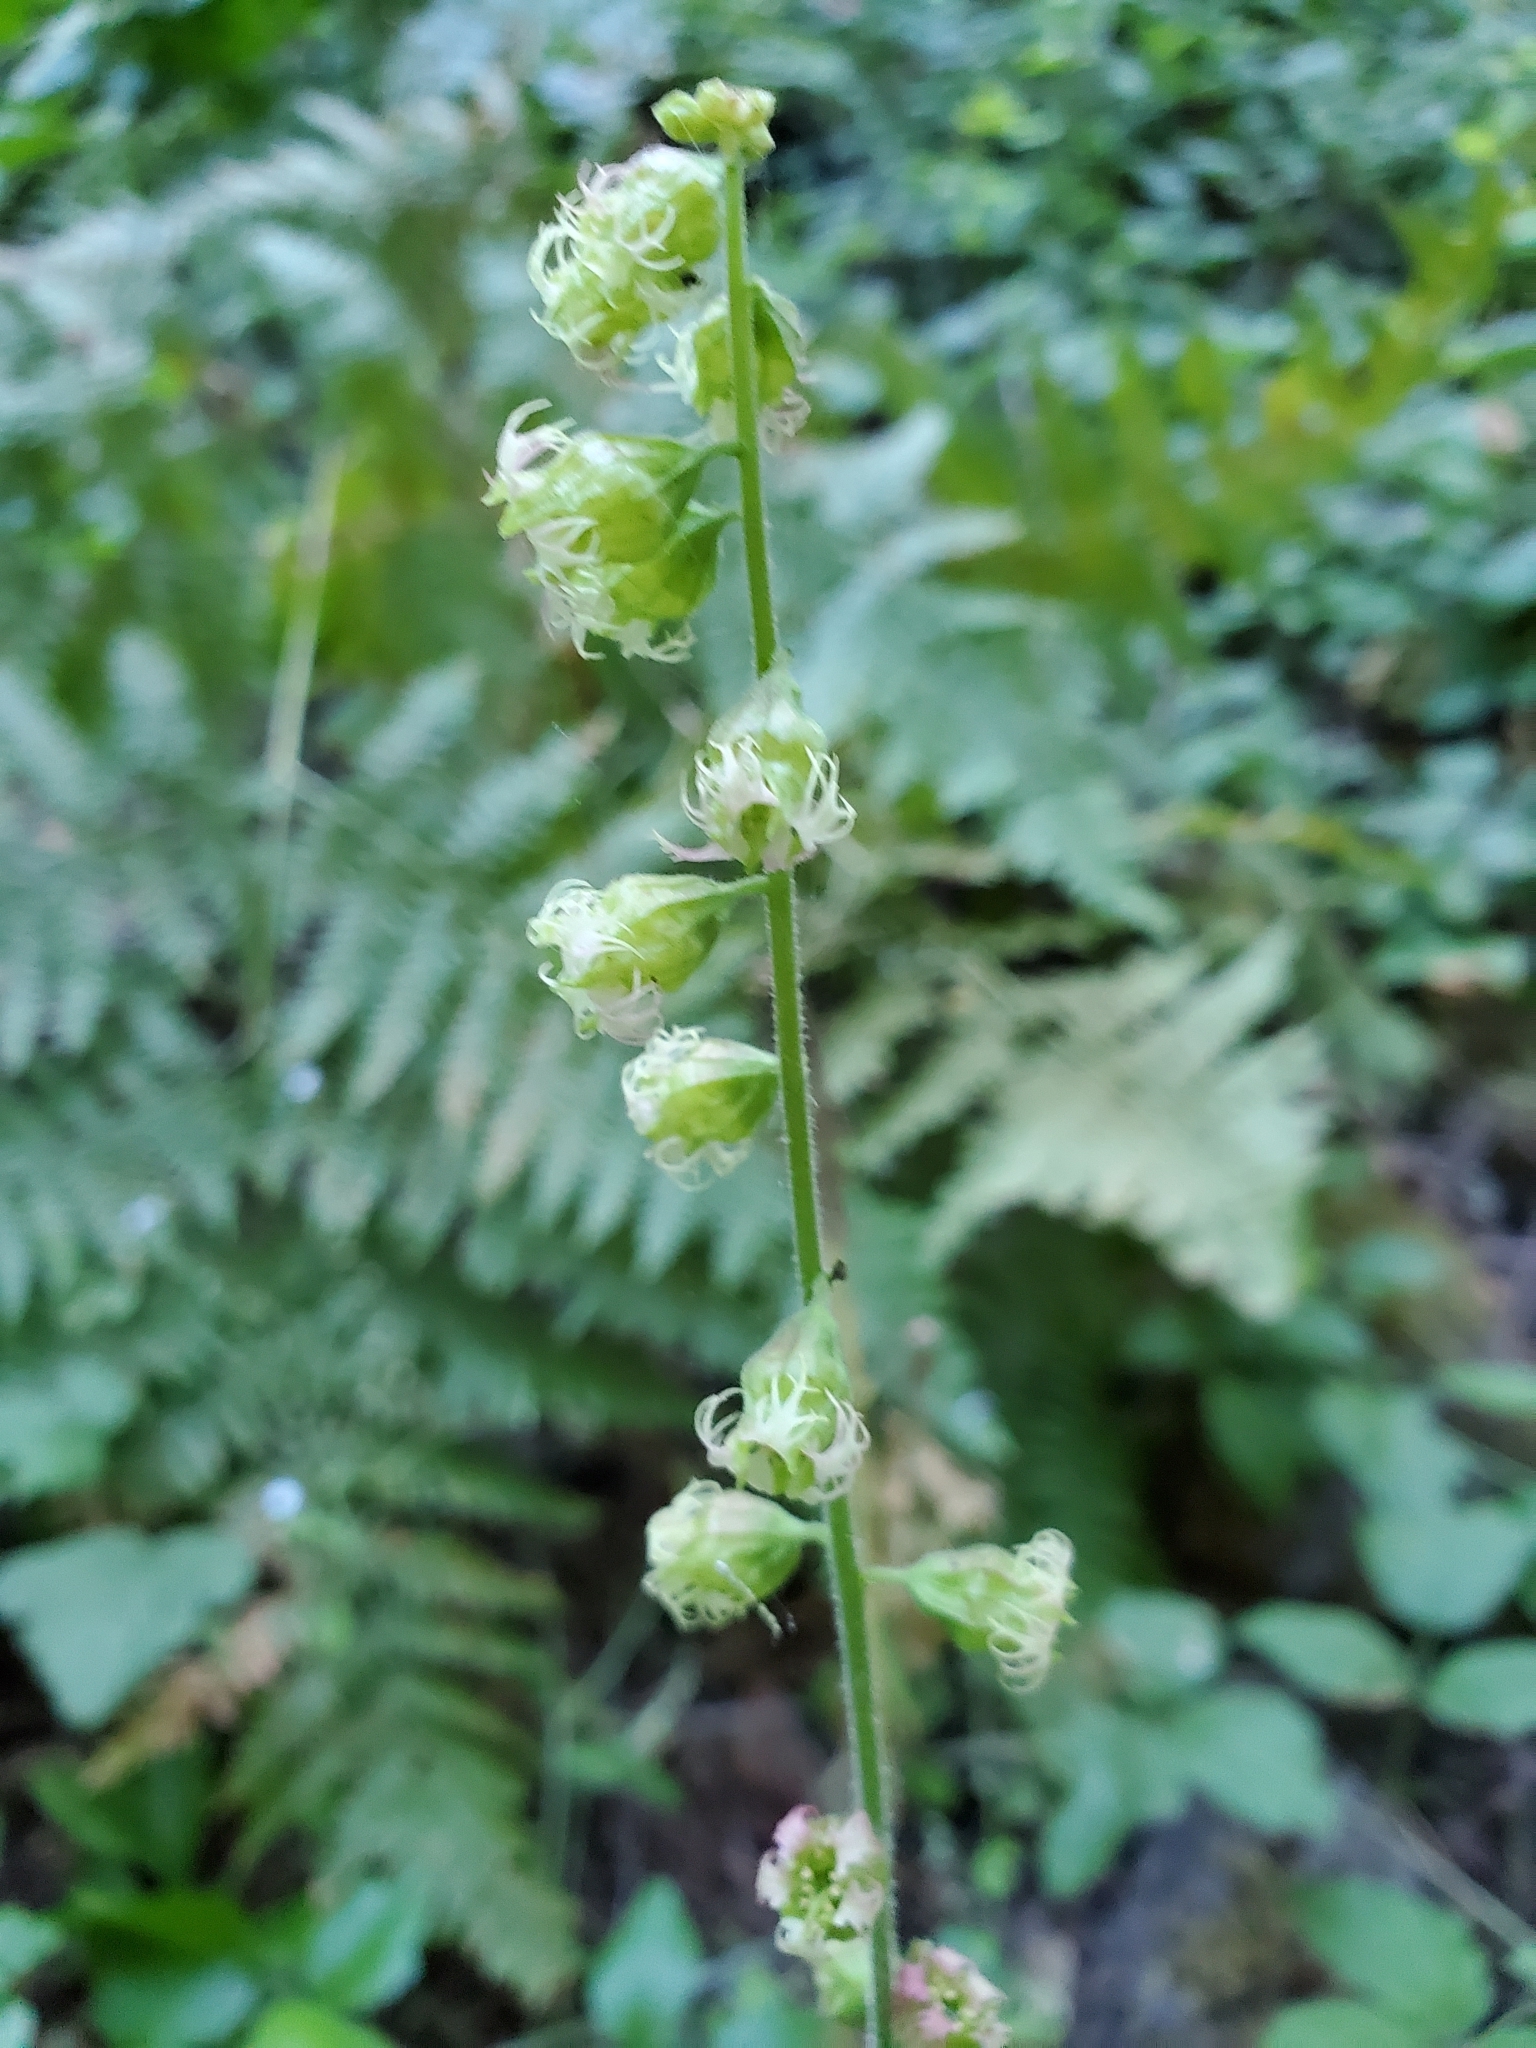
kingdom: Plantae
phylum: Tracheophyta
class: Magnoliopsida
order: Saxifragales
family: Saxifragaceae
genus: Tellima
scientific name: Tellima grandiflora
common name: Fringecups
